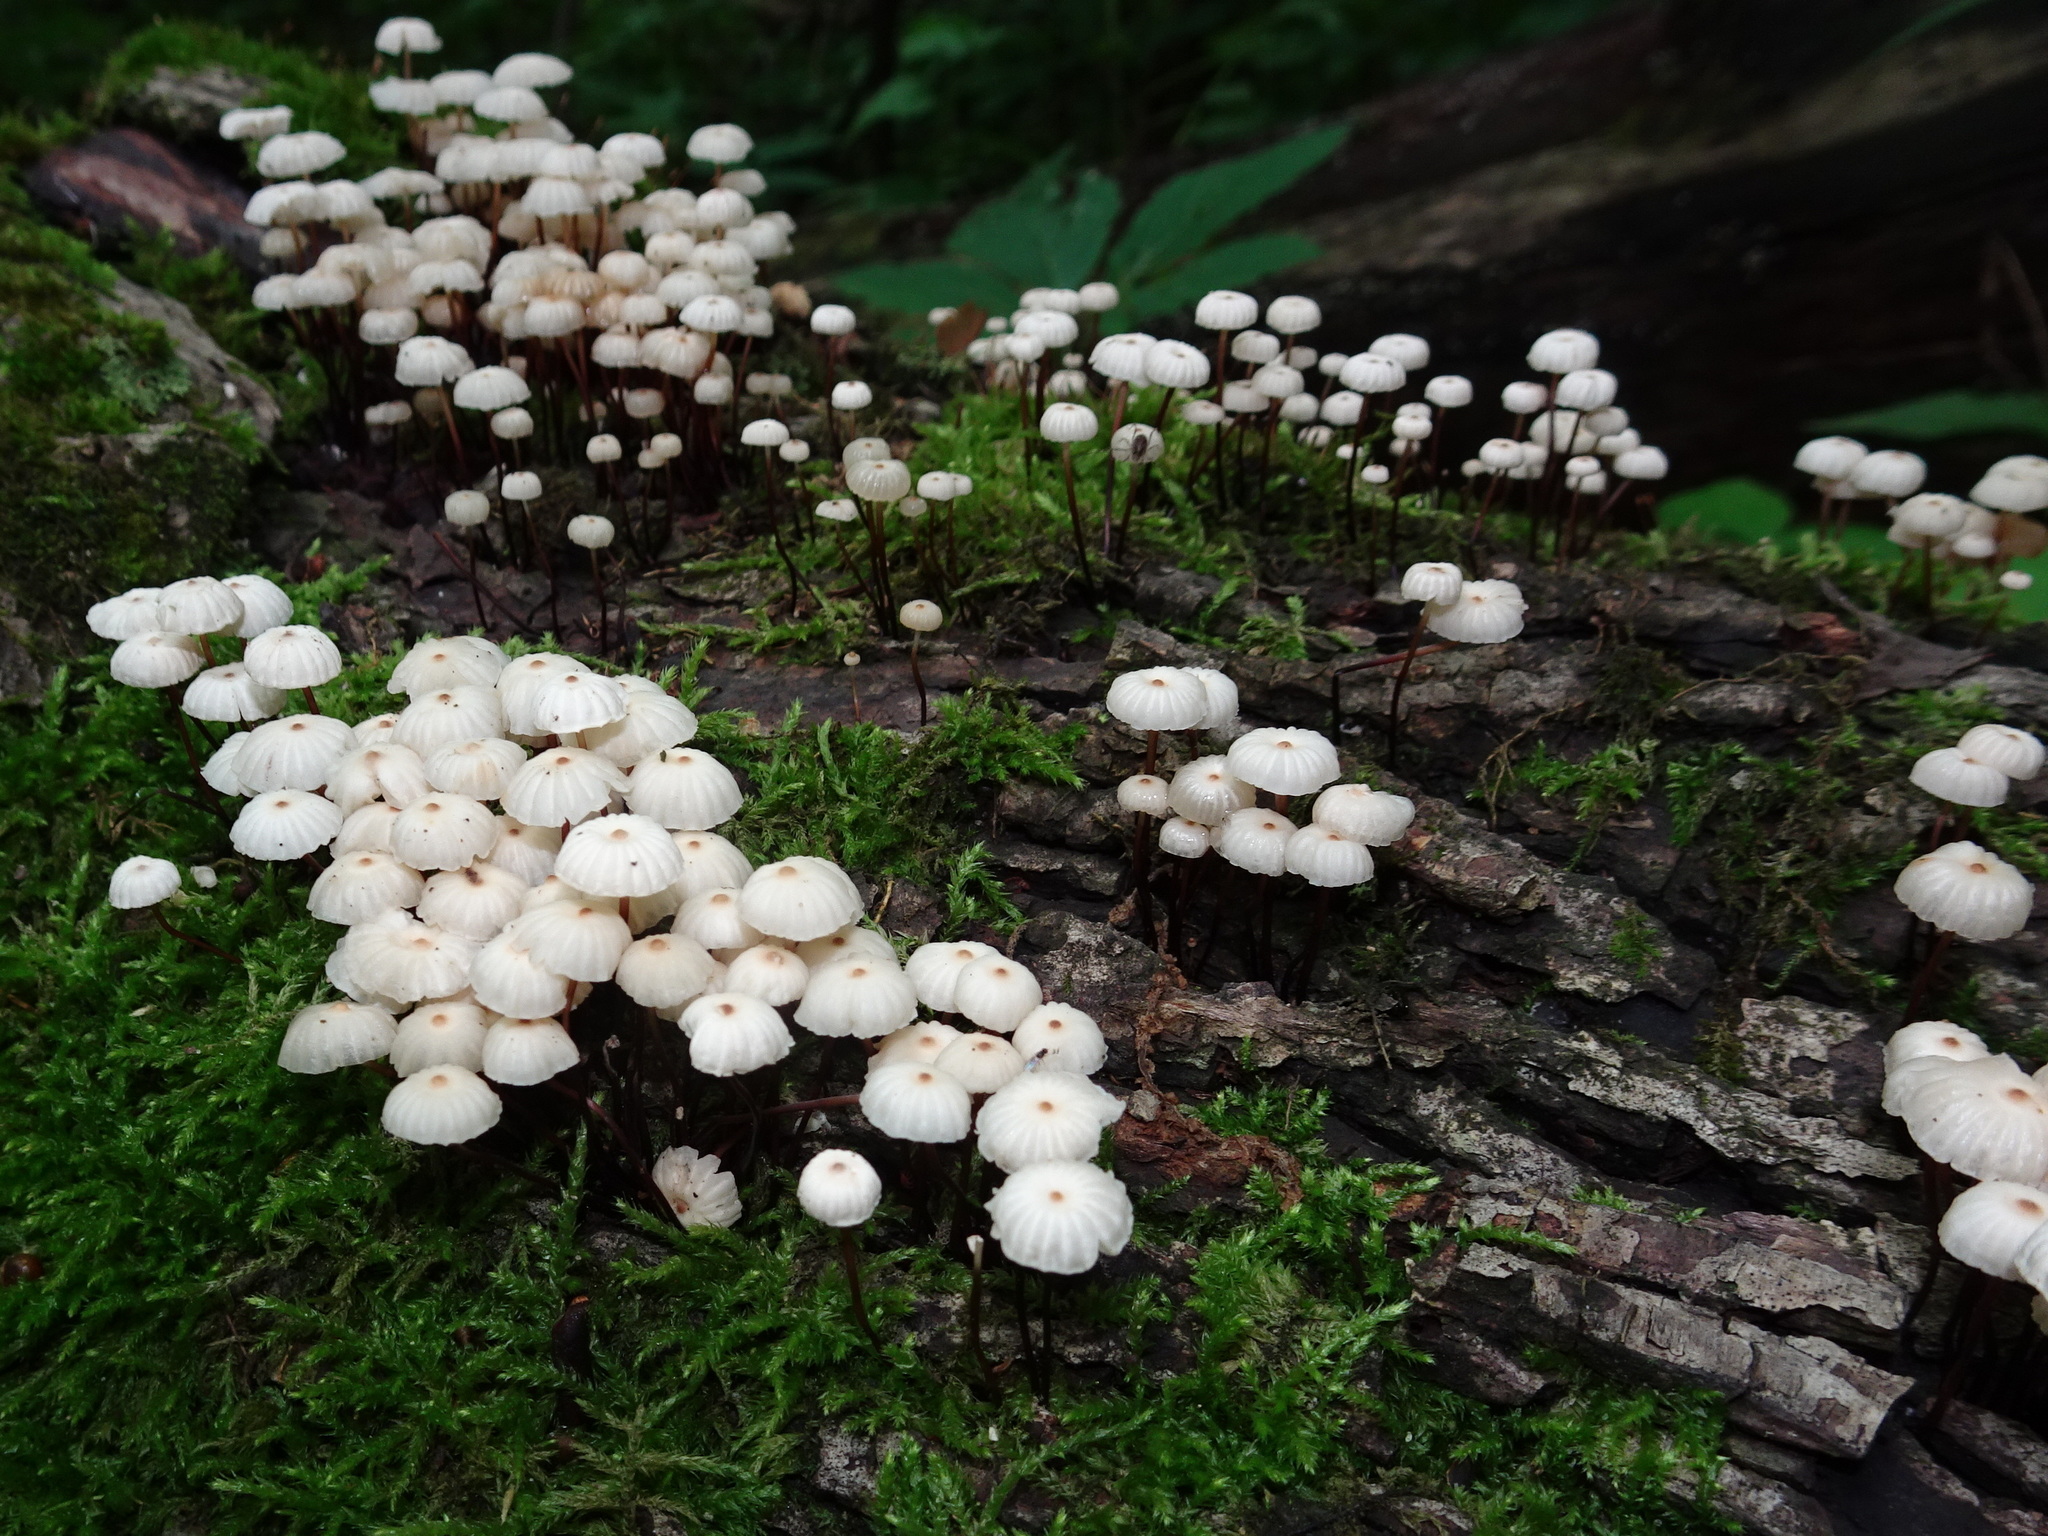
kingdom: Fungi
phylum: Basidiomycota
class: Agaricomycetes
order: Agaricales
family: Marasmiaceae
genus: Marasmius
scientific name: Marasmius rotula
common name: Collared parachute
